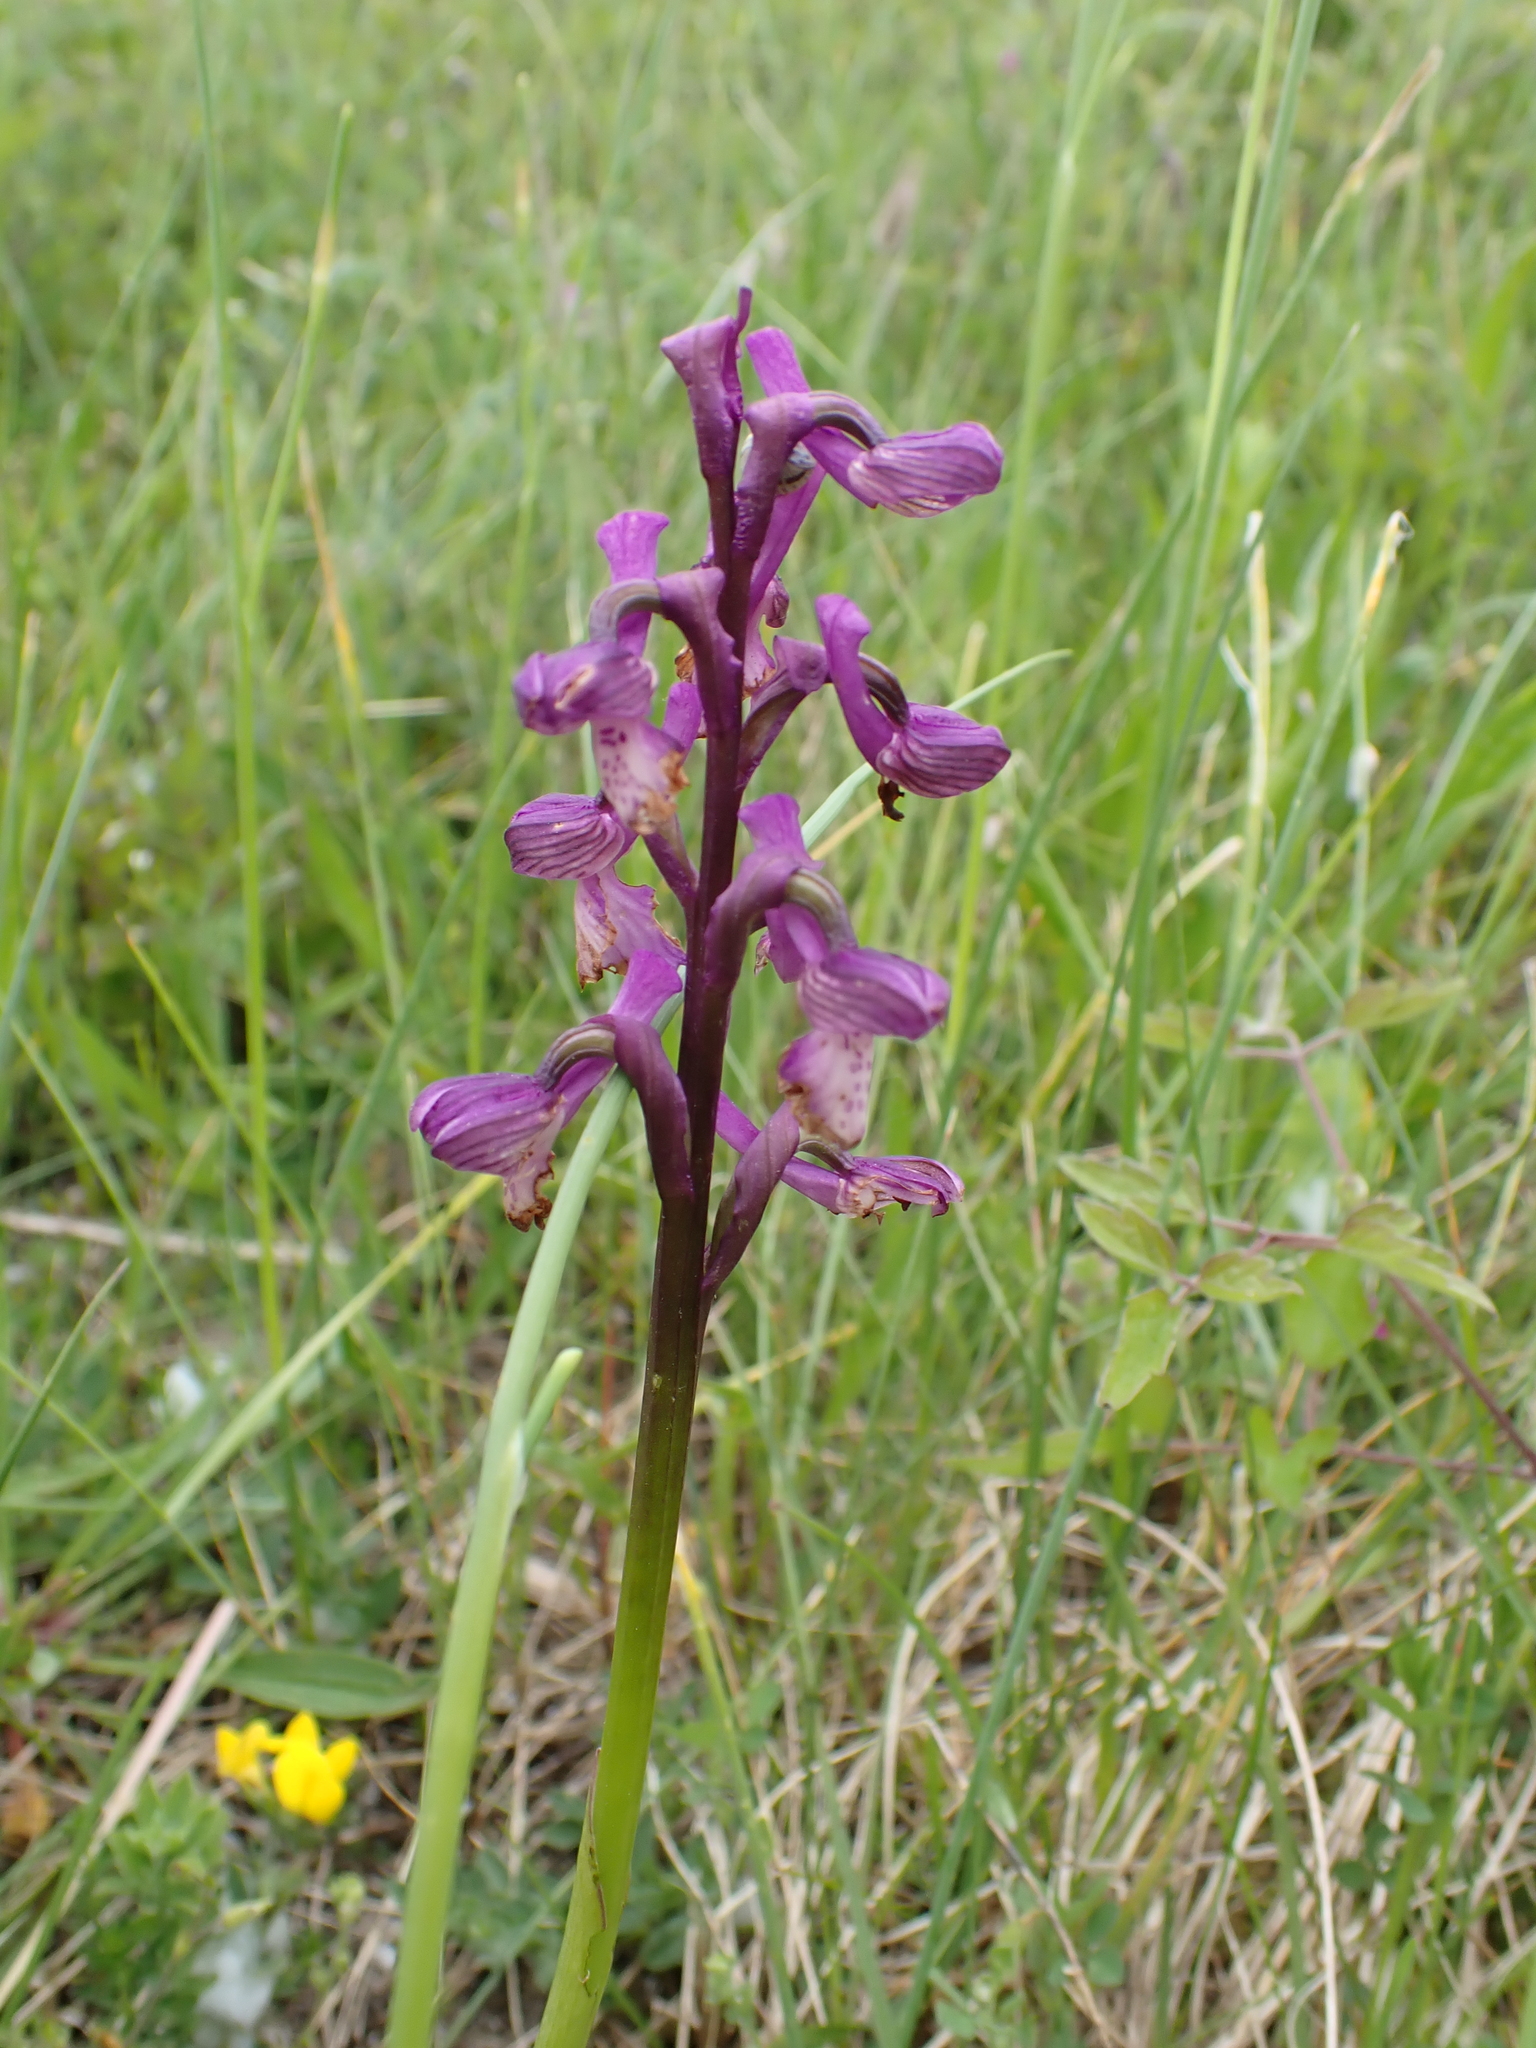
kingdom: Plantae
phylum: Tracheophyta
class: Liliopsida
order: Asparagales
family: Orchidaceae
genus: Anacamptis
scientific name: Anacamptis morio
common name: Green-winged orchid
